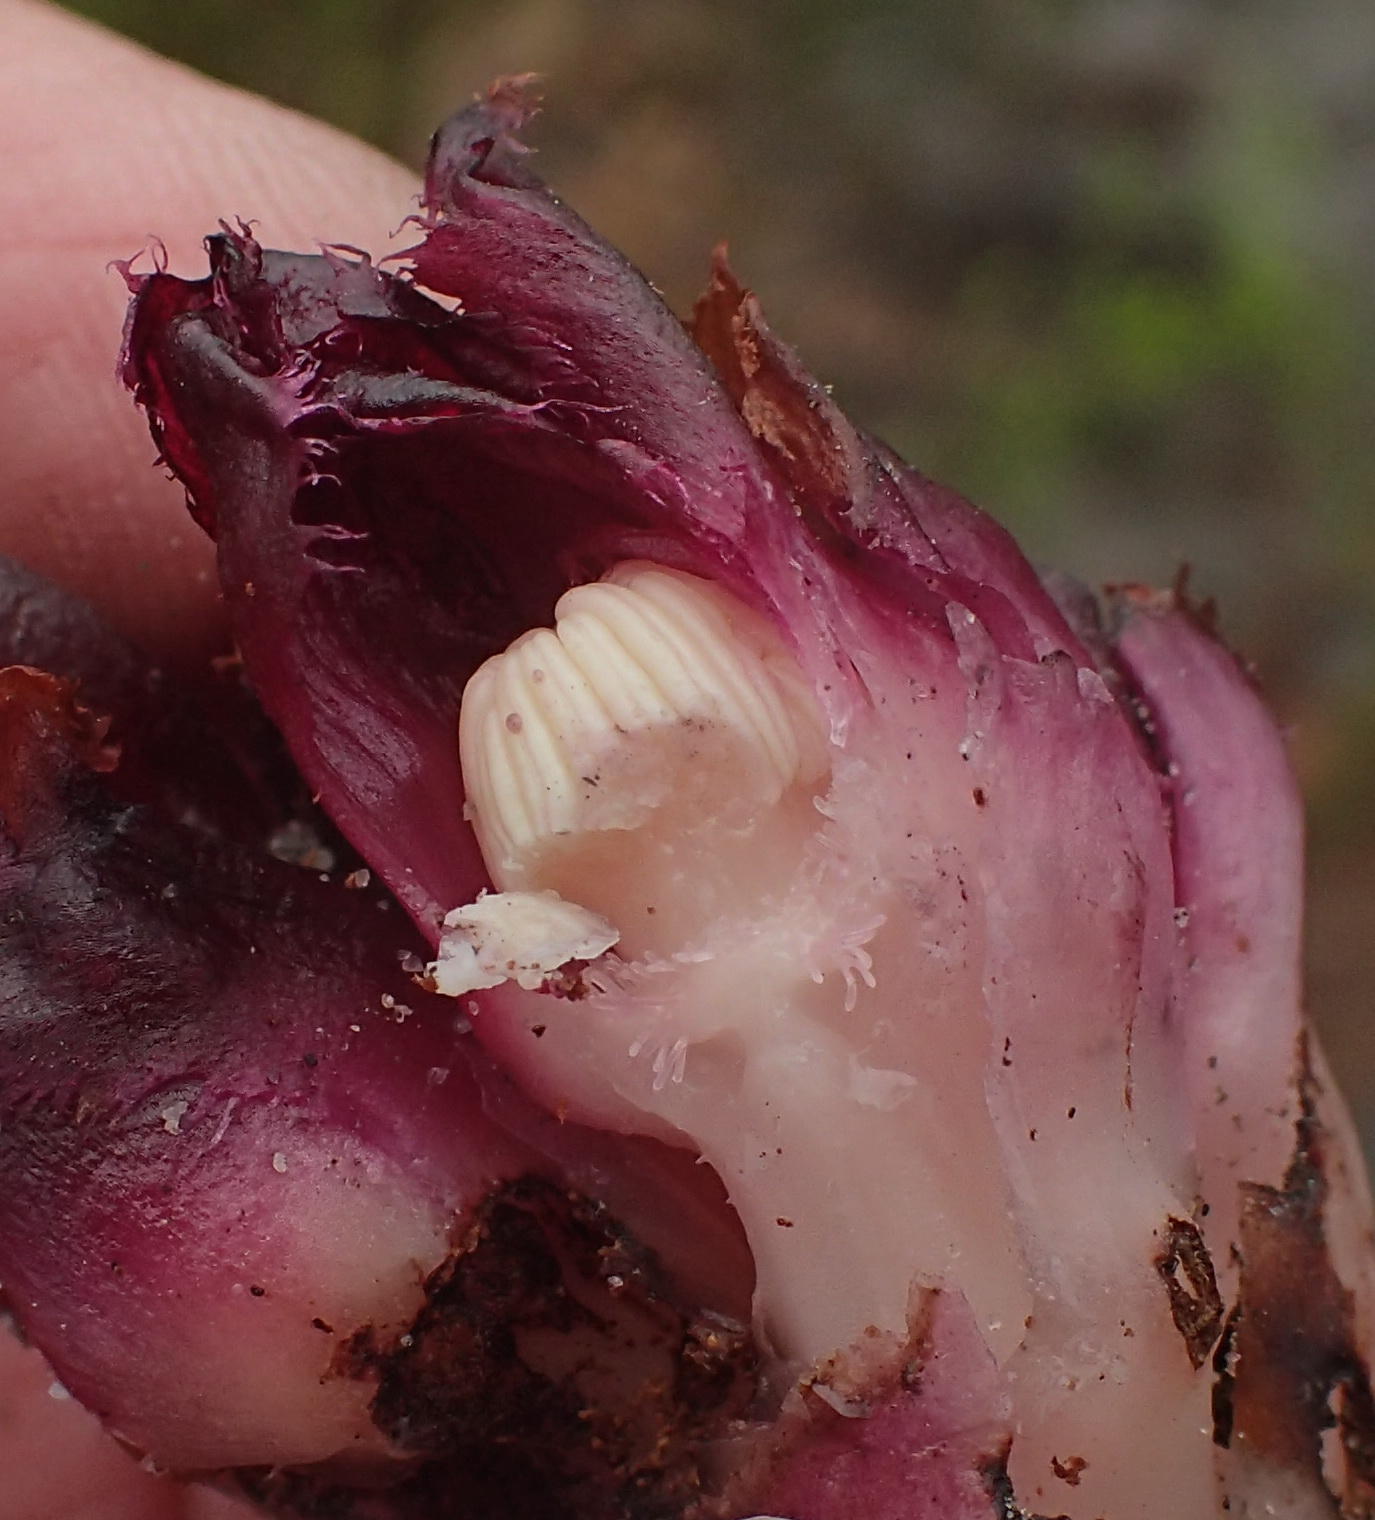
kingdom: Plantae
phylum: Tracheophyta
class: Magnoliopsida
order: Malvales
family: Cytinaceae
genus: Cytinus
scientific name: Cytinus sanguineus
